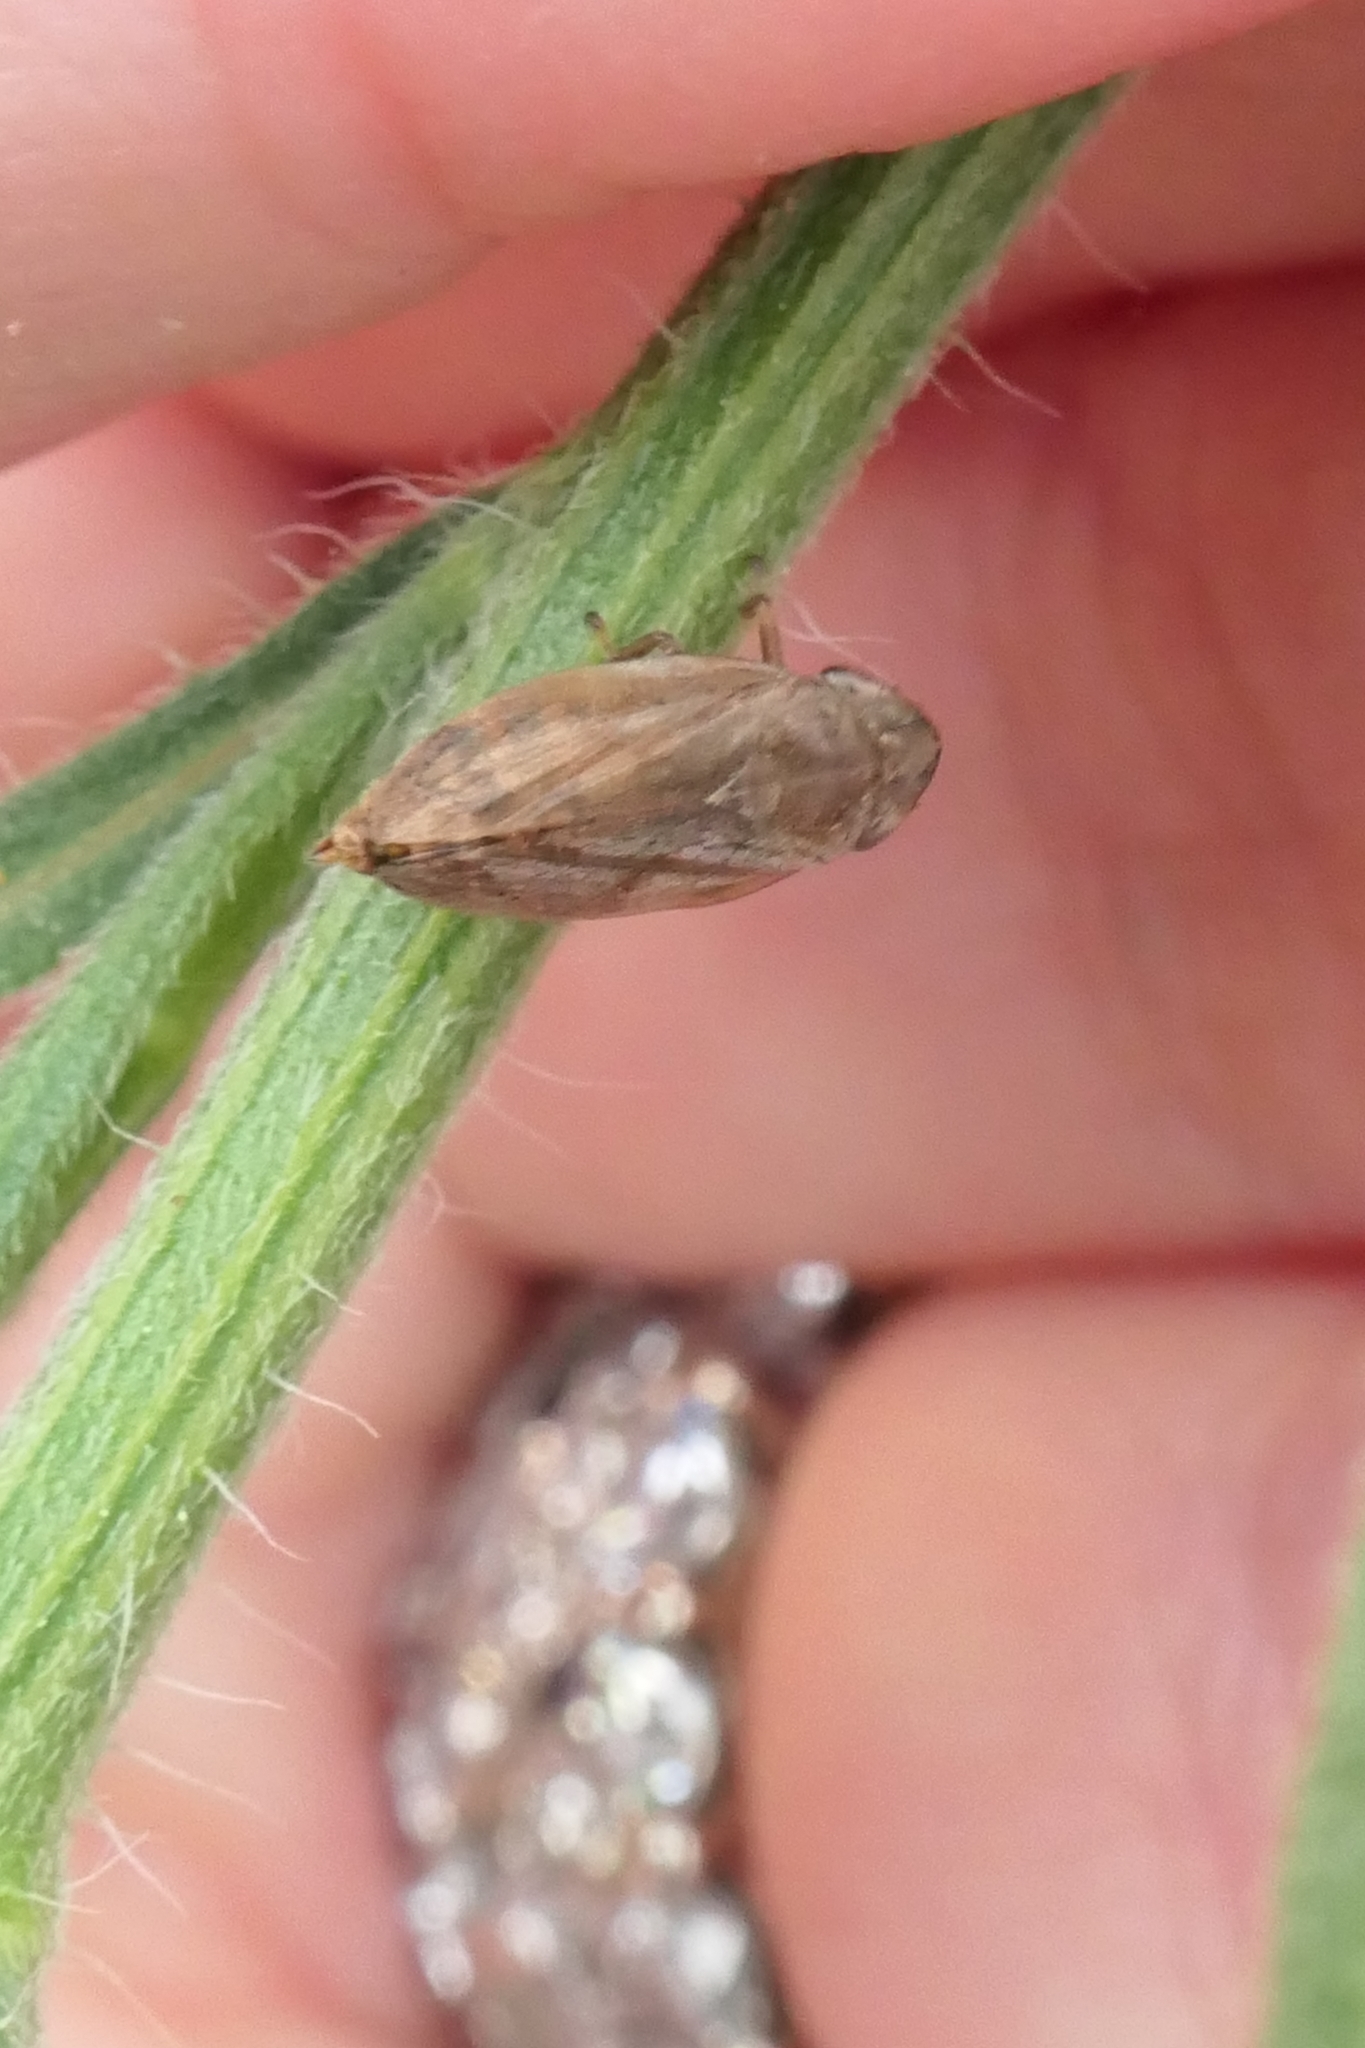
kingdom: Animalia
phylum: Arthropoda
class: Insecta
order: Hemiptera
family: Aphrophoridae
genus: Philaenus
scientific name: Philaenus spumarius
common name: Meadow spittlebug
